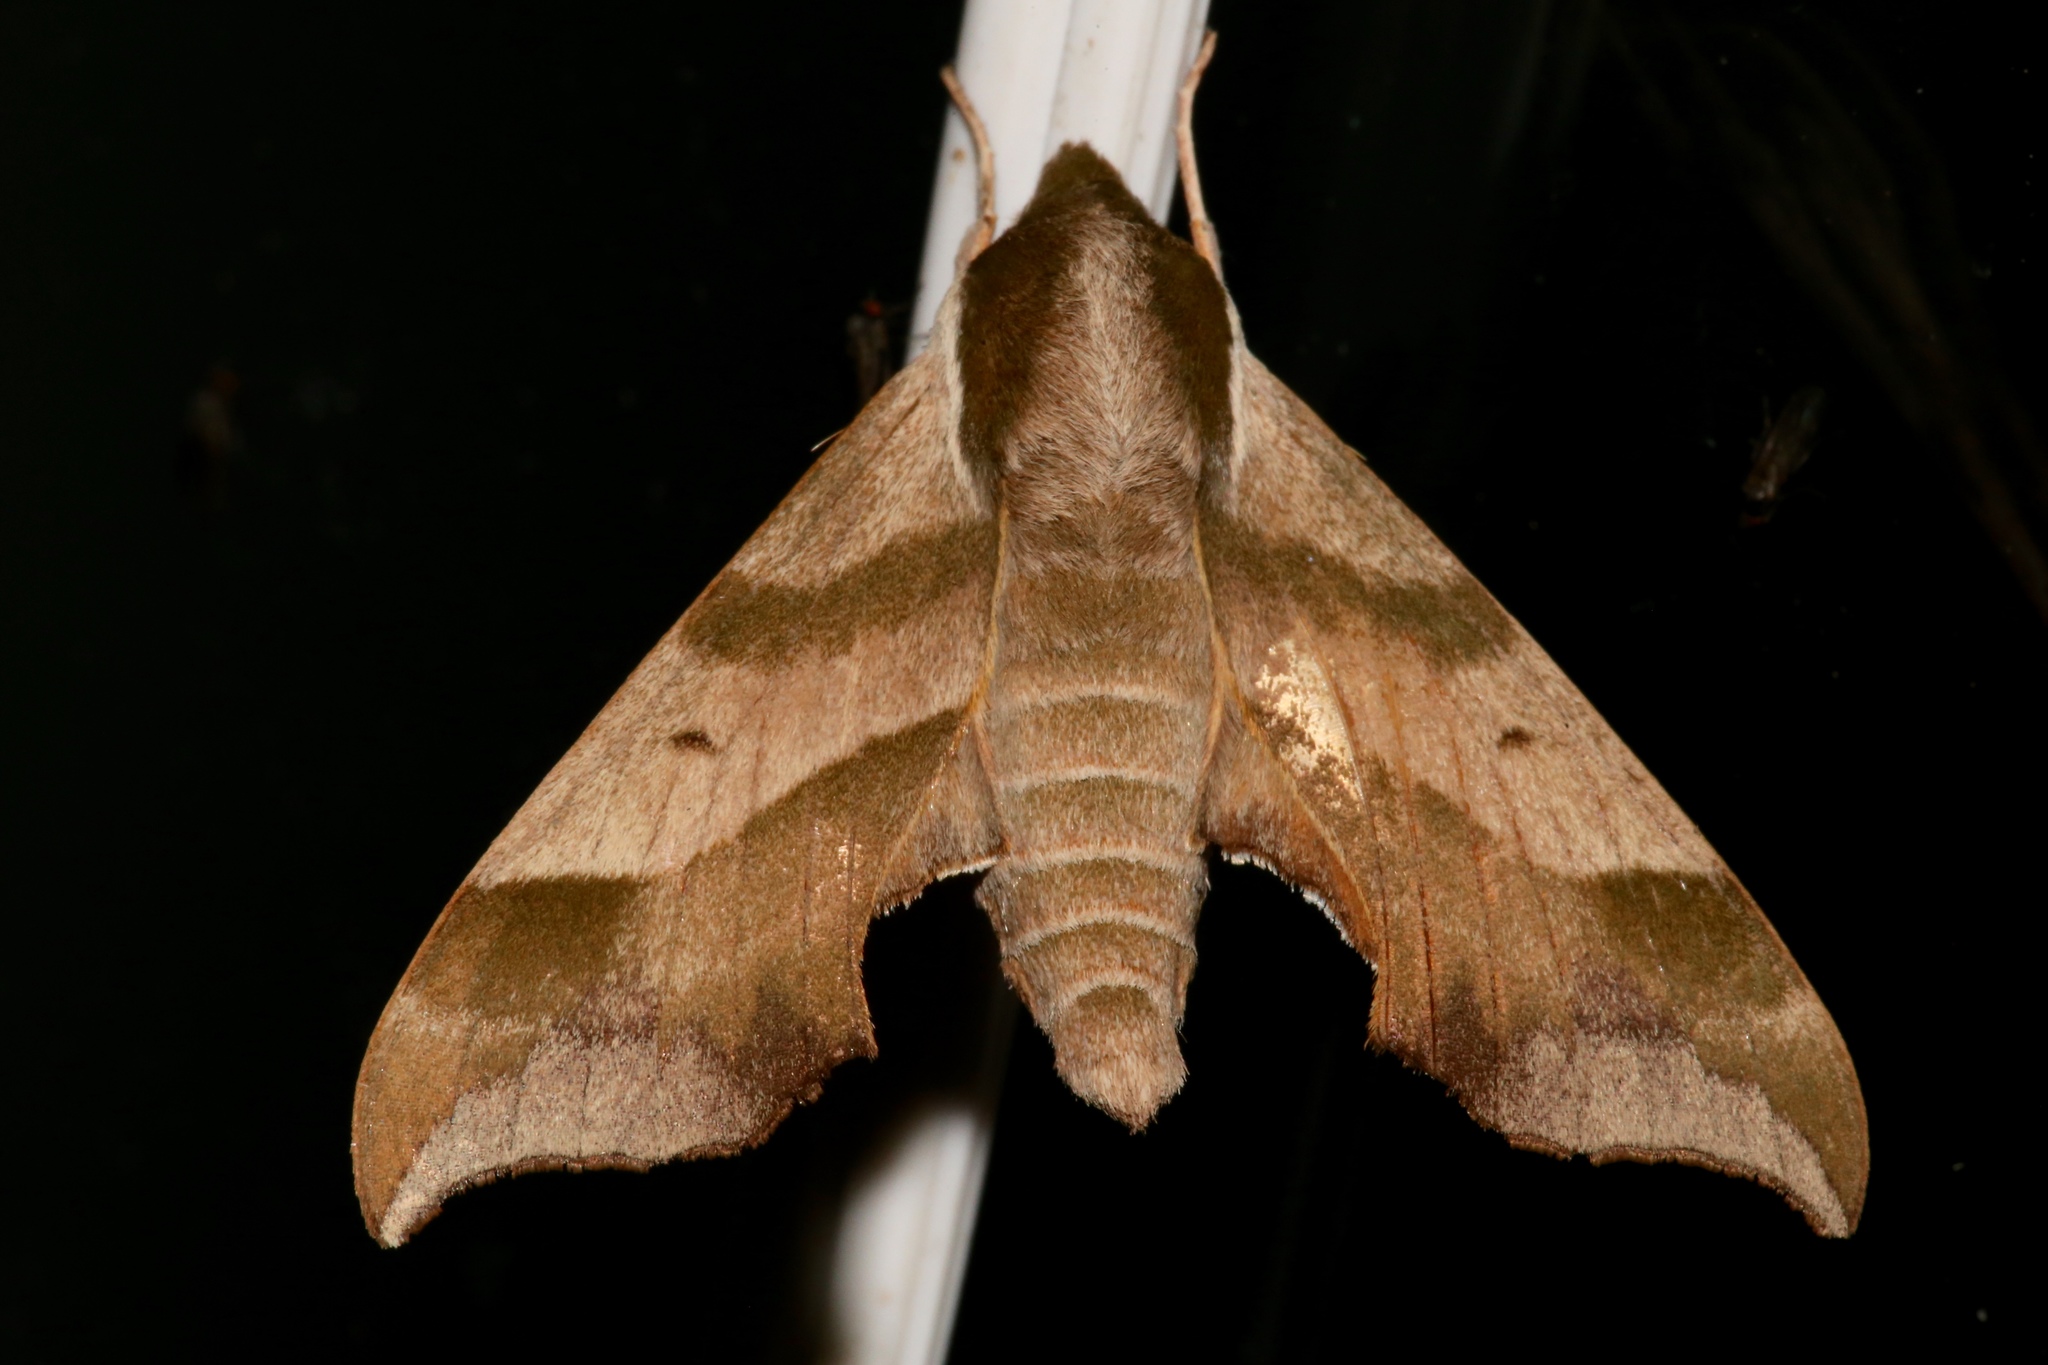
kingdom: Animalia
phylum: Arthropoda
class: Insecta
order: Lepidoptera
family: Sphingidae
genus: Darapsa
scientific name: Darapsa myron
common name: Hog sphinx
